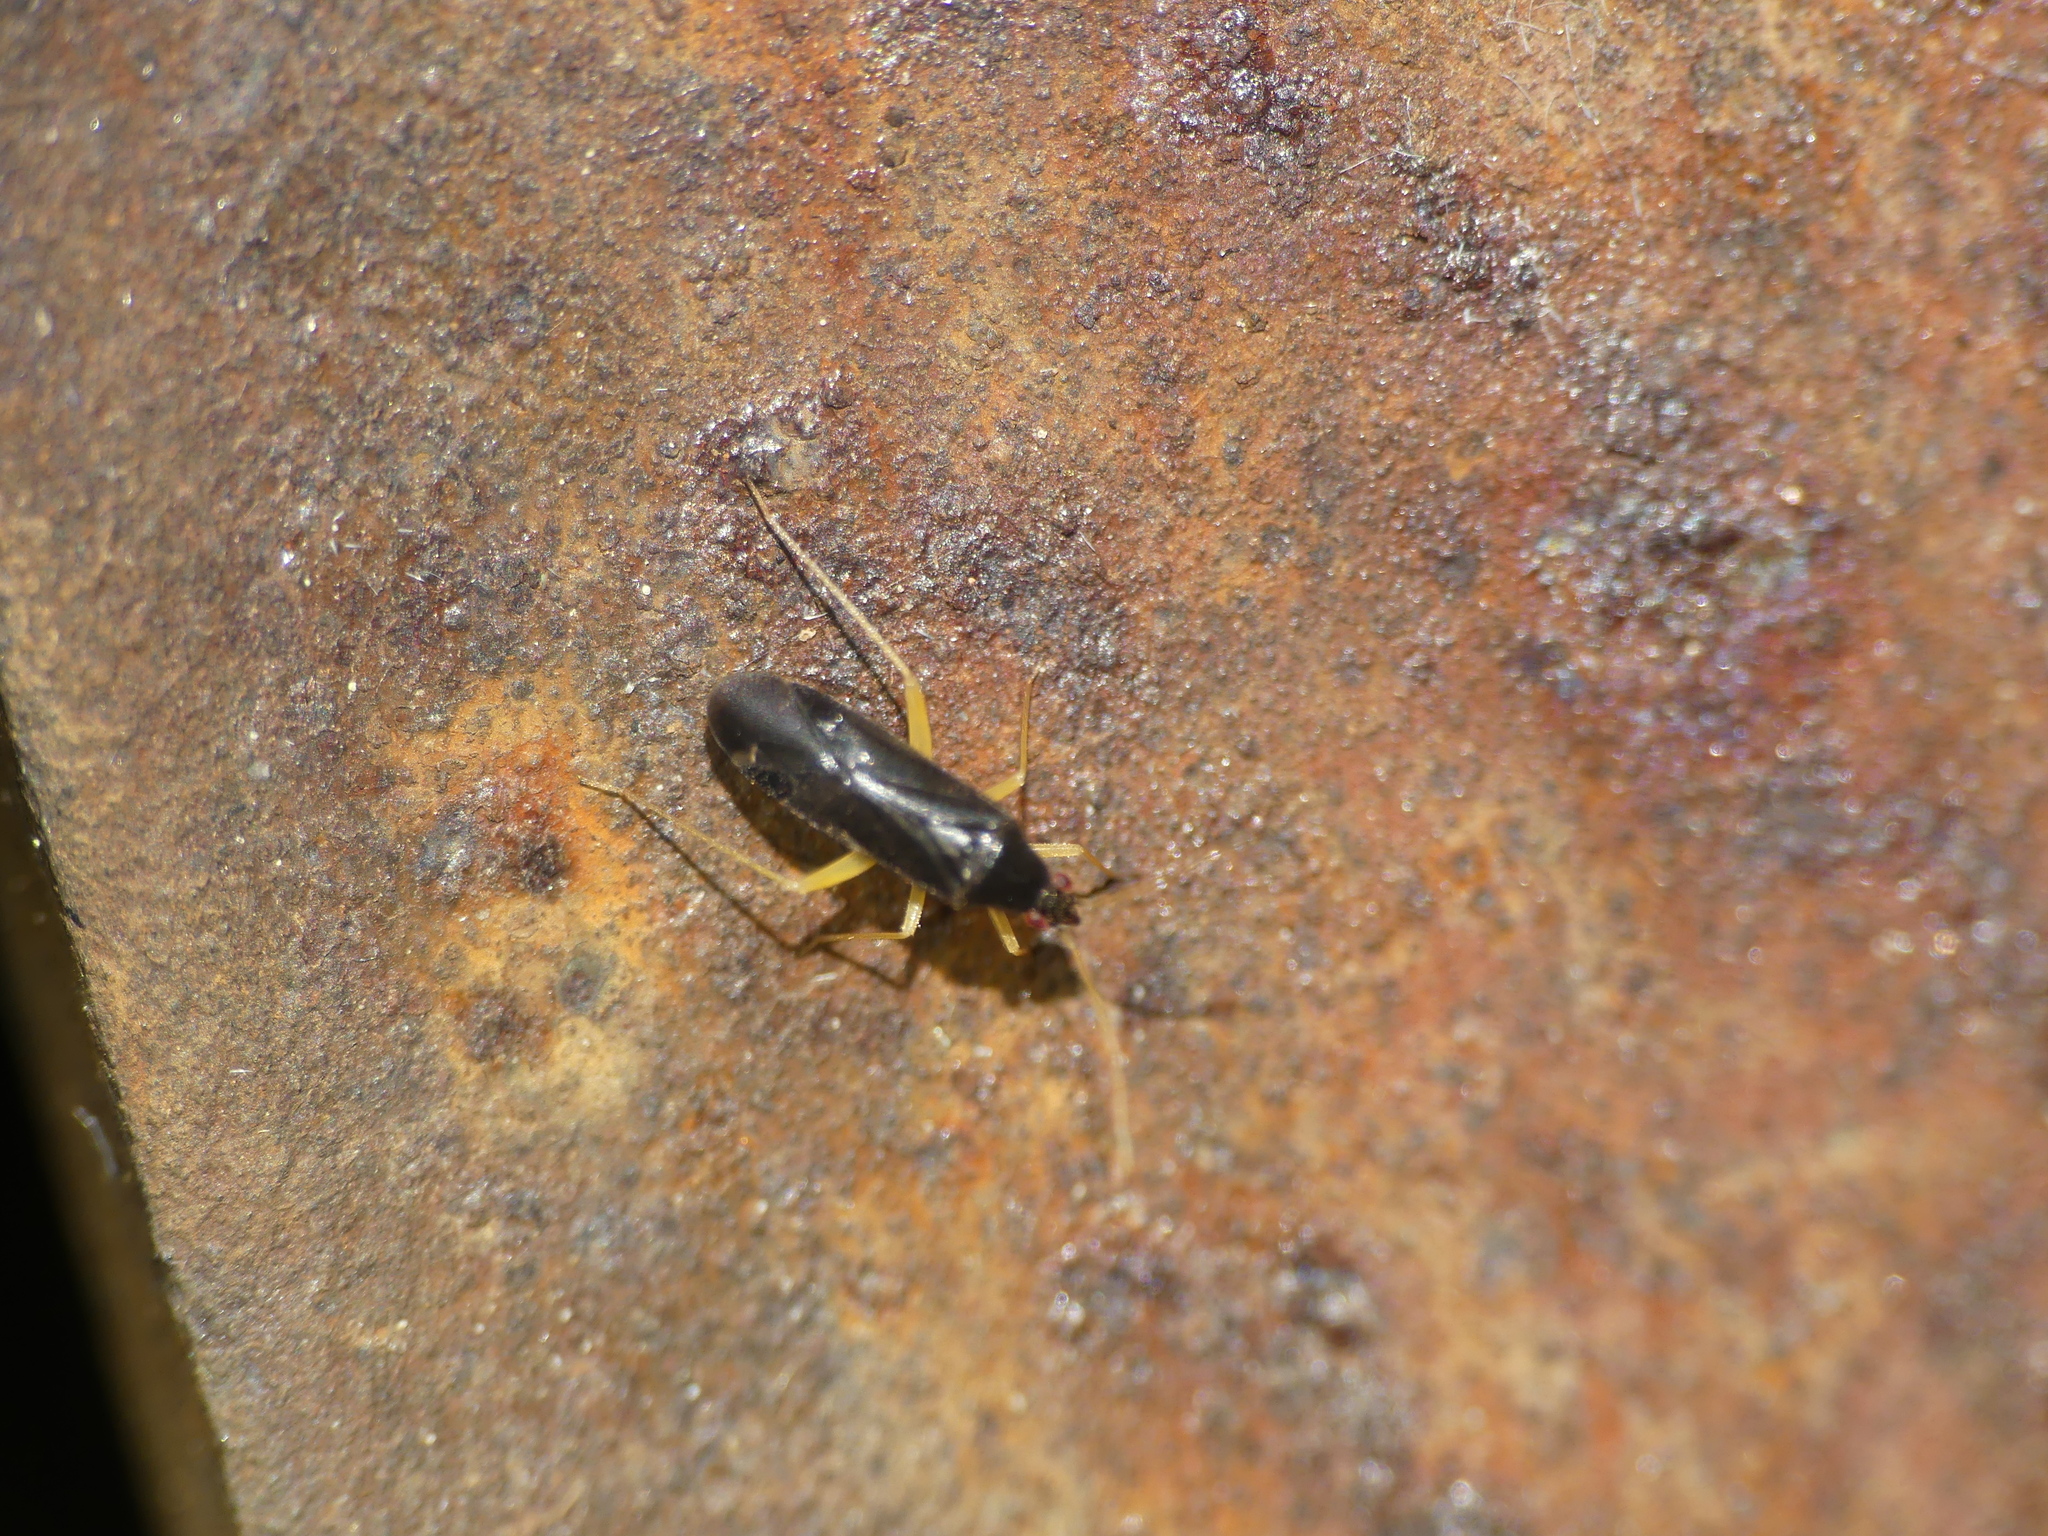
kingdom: Animalia
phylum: Arthropoda
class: Insecta
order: Hemiptera
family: Miridae
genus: Phylus
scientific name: Phylus coryli
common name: Plant bug
